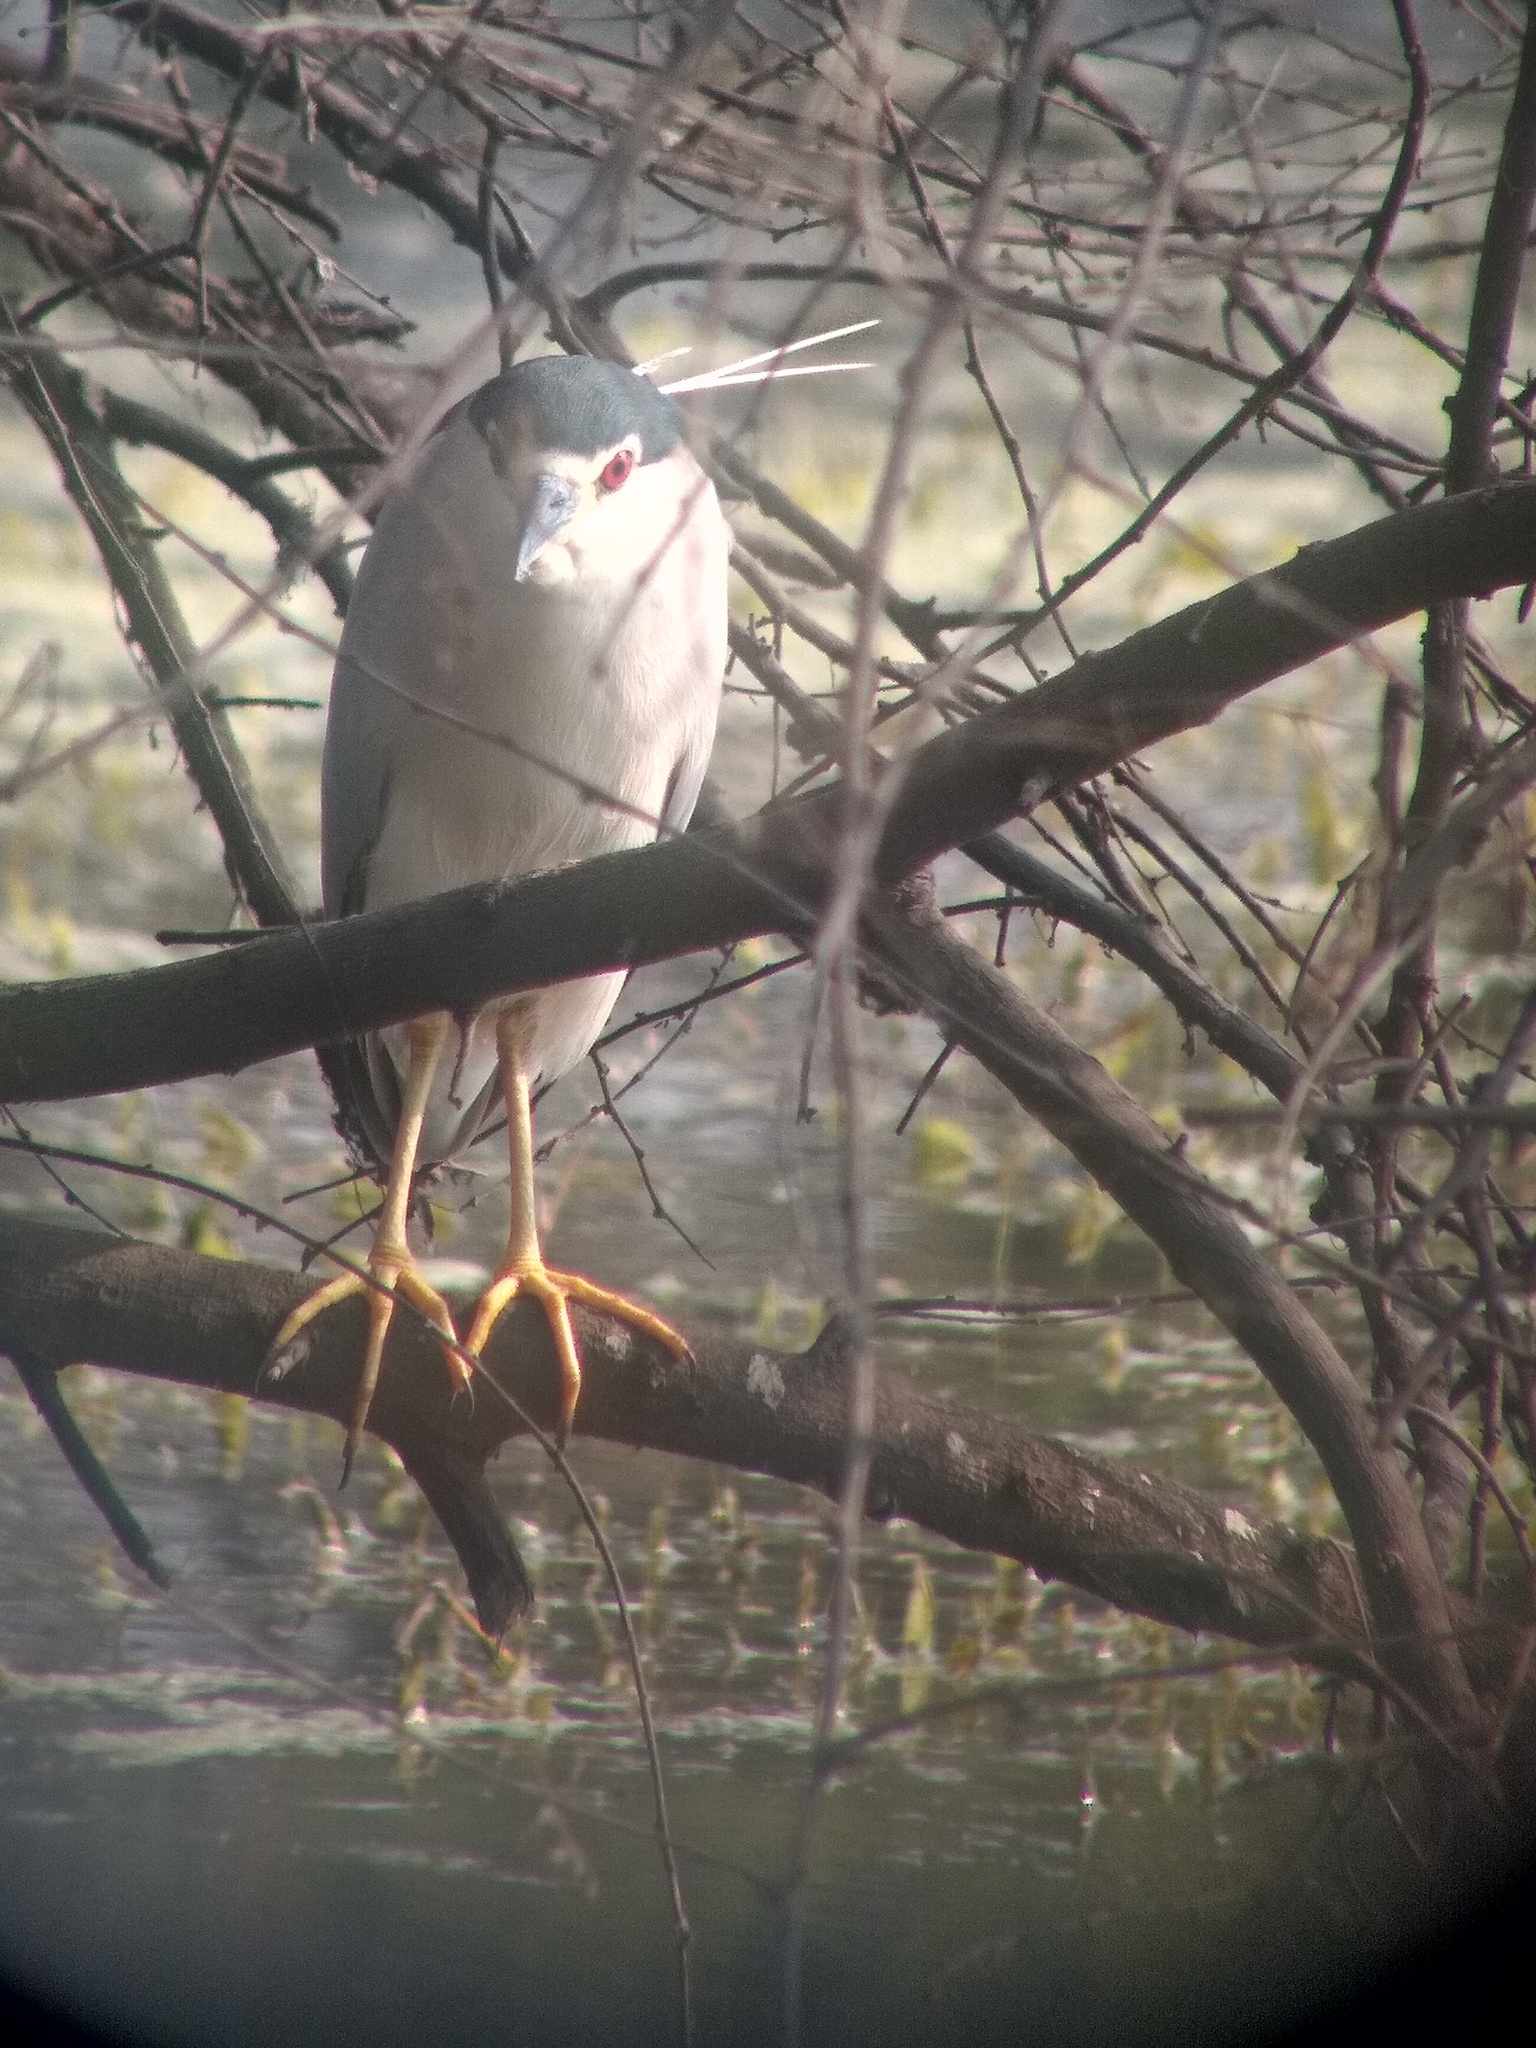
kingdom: Animalia
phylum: Chordata
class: Aves
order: Pelecaniformes
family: Ardeidae
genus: Nycticorax
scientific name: Nycticorax nycticorax
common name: Black-crowned night heron
